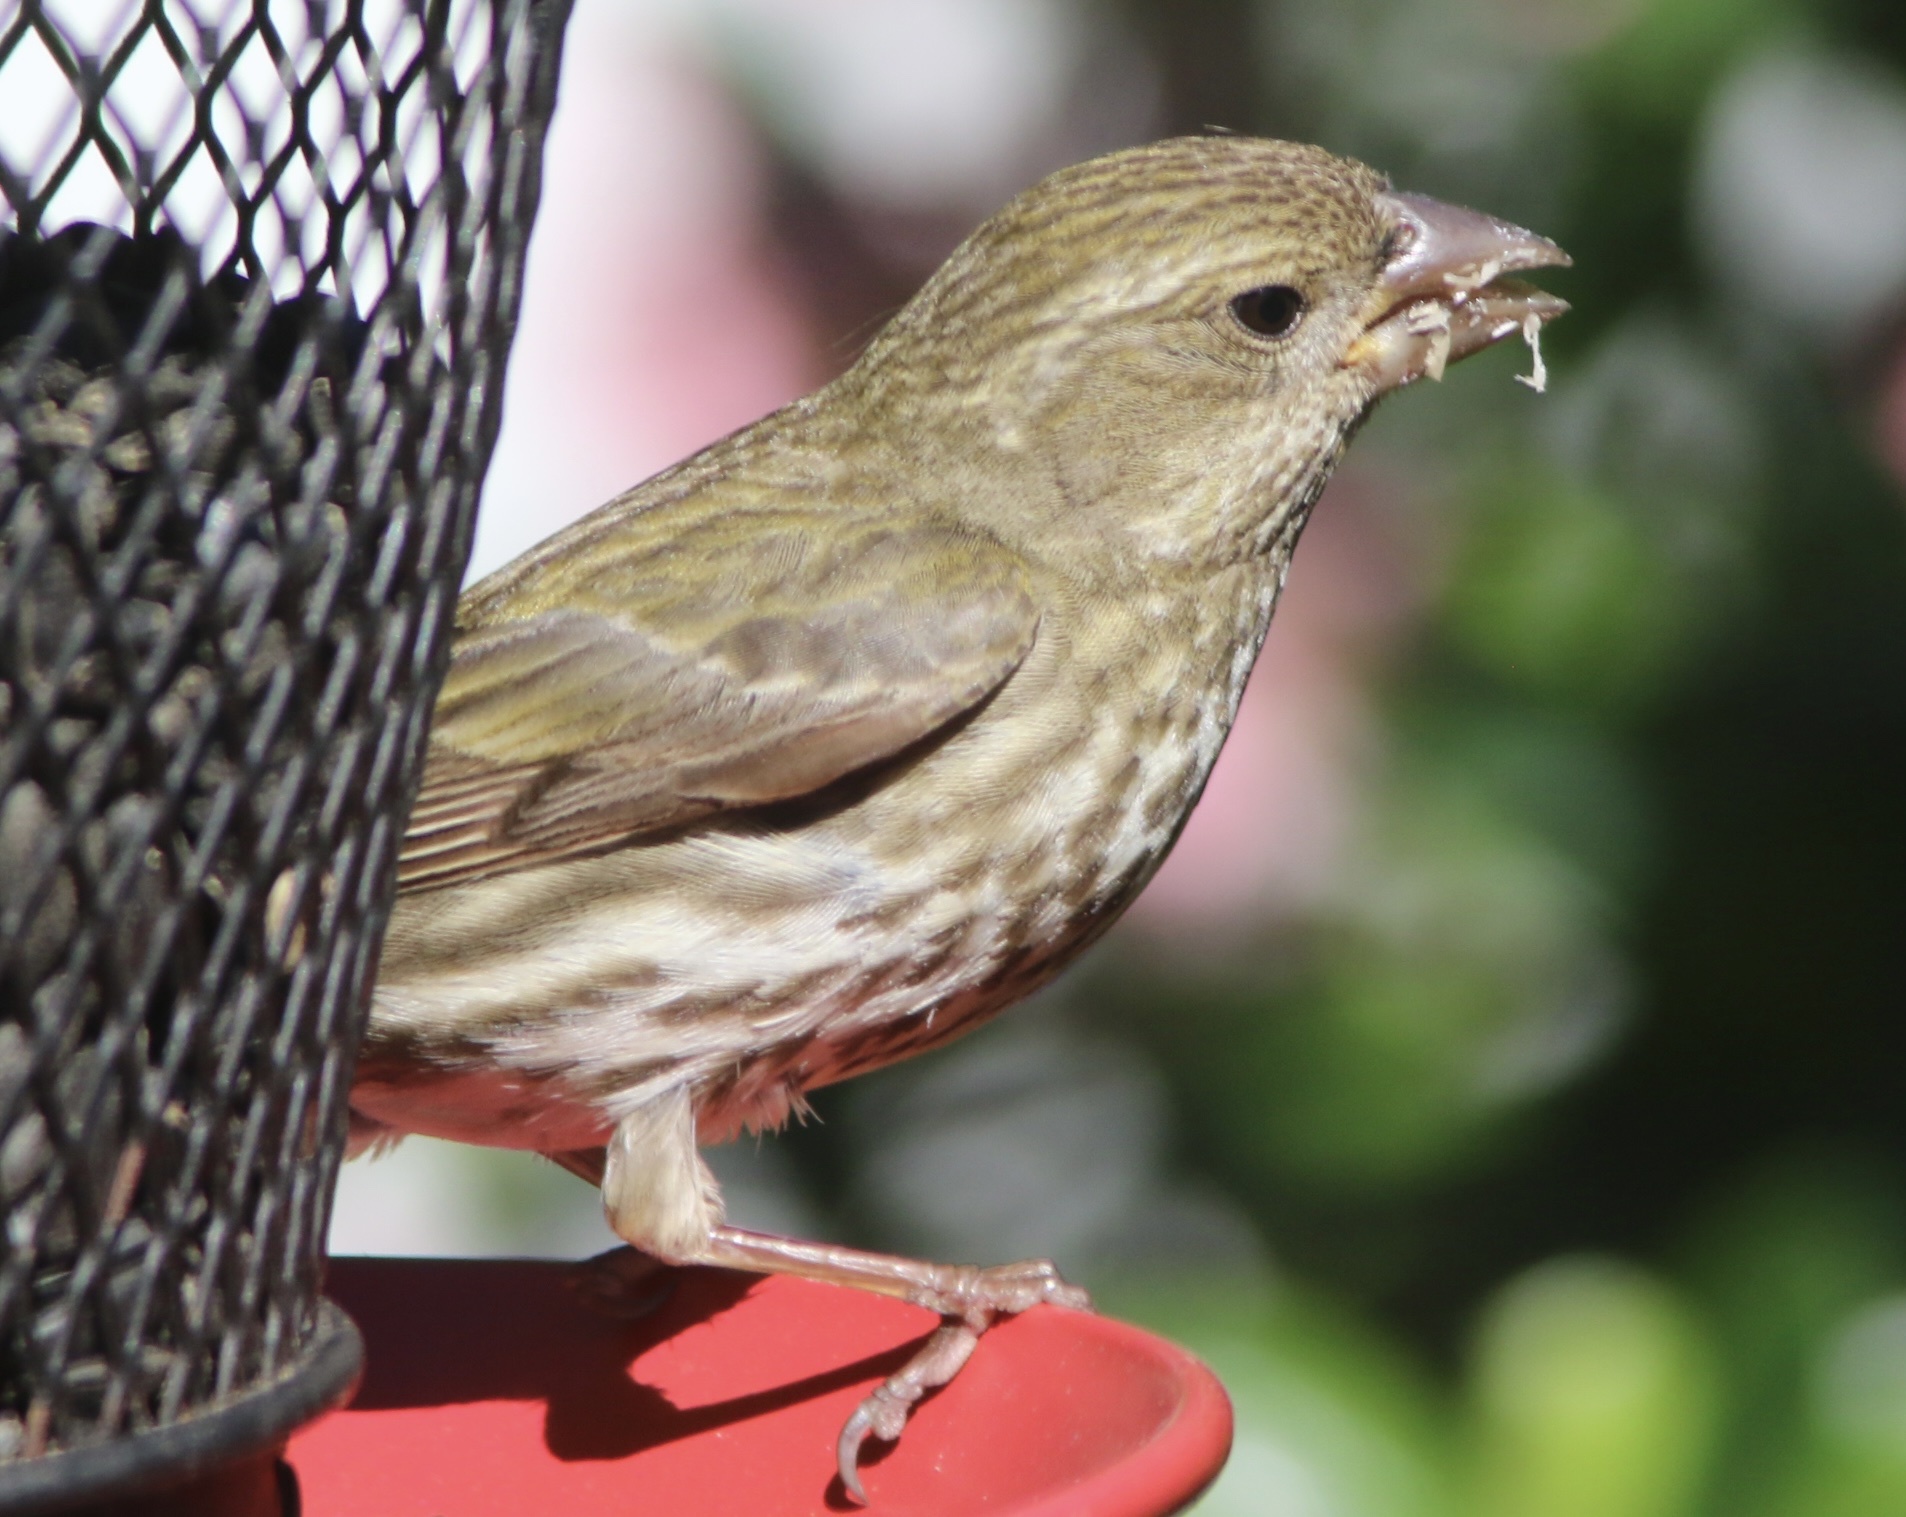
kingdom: Animalia
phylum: Chordata
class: Aves
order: Passeriformes
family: Fringillidae
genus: Haemorhous
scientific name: Haemorhous purpureus
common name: Purple finch
